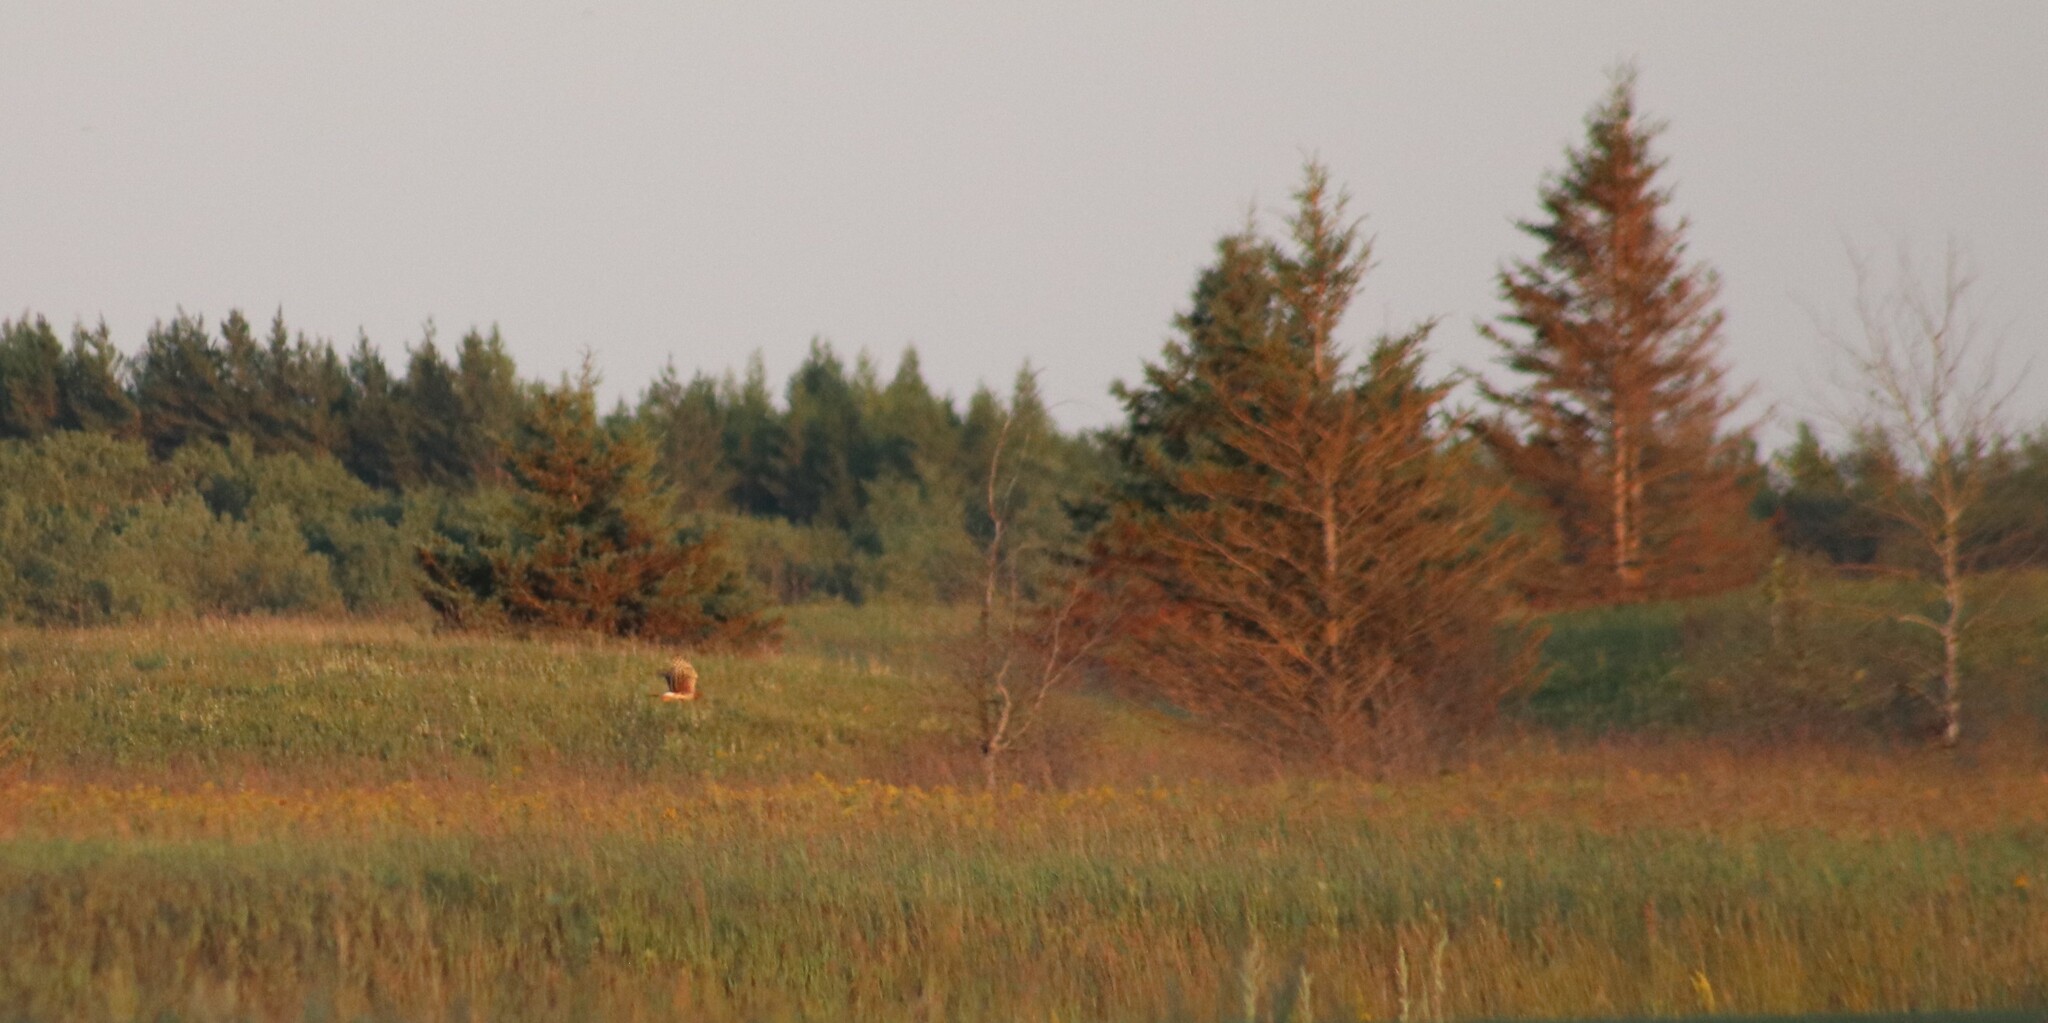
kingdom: Animalia
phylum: Chordata
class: Aves
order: Accipitriformes
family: Accipitridae
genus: Circus
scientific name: Circus cyaneus
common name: Hen harrier
